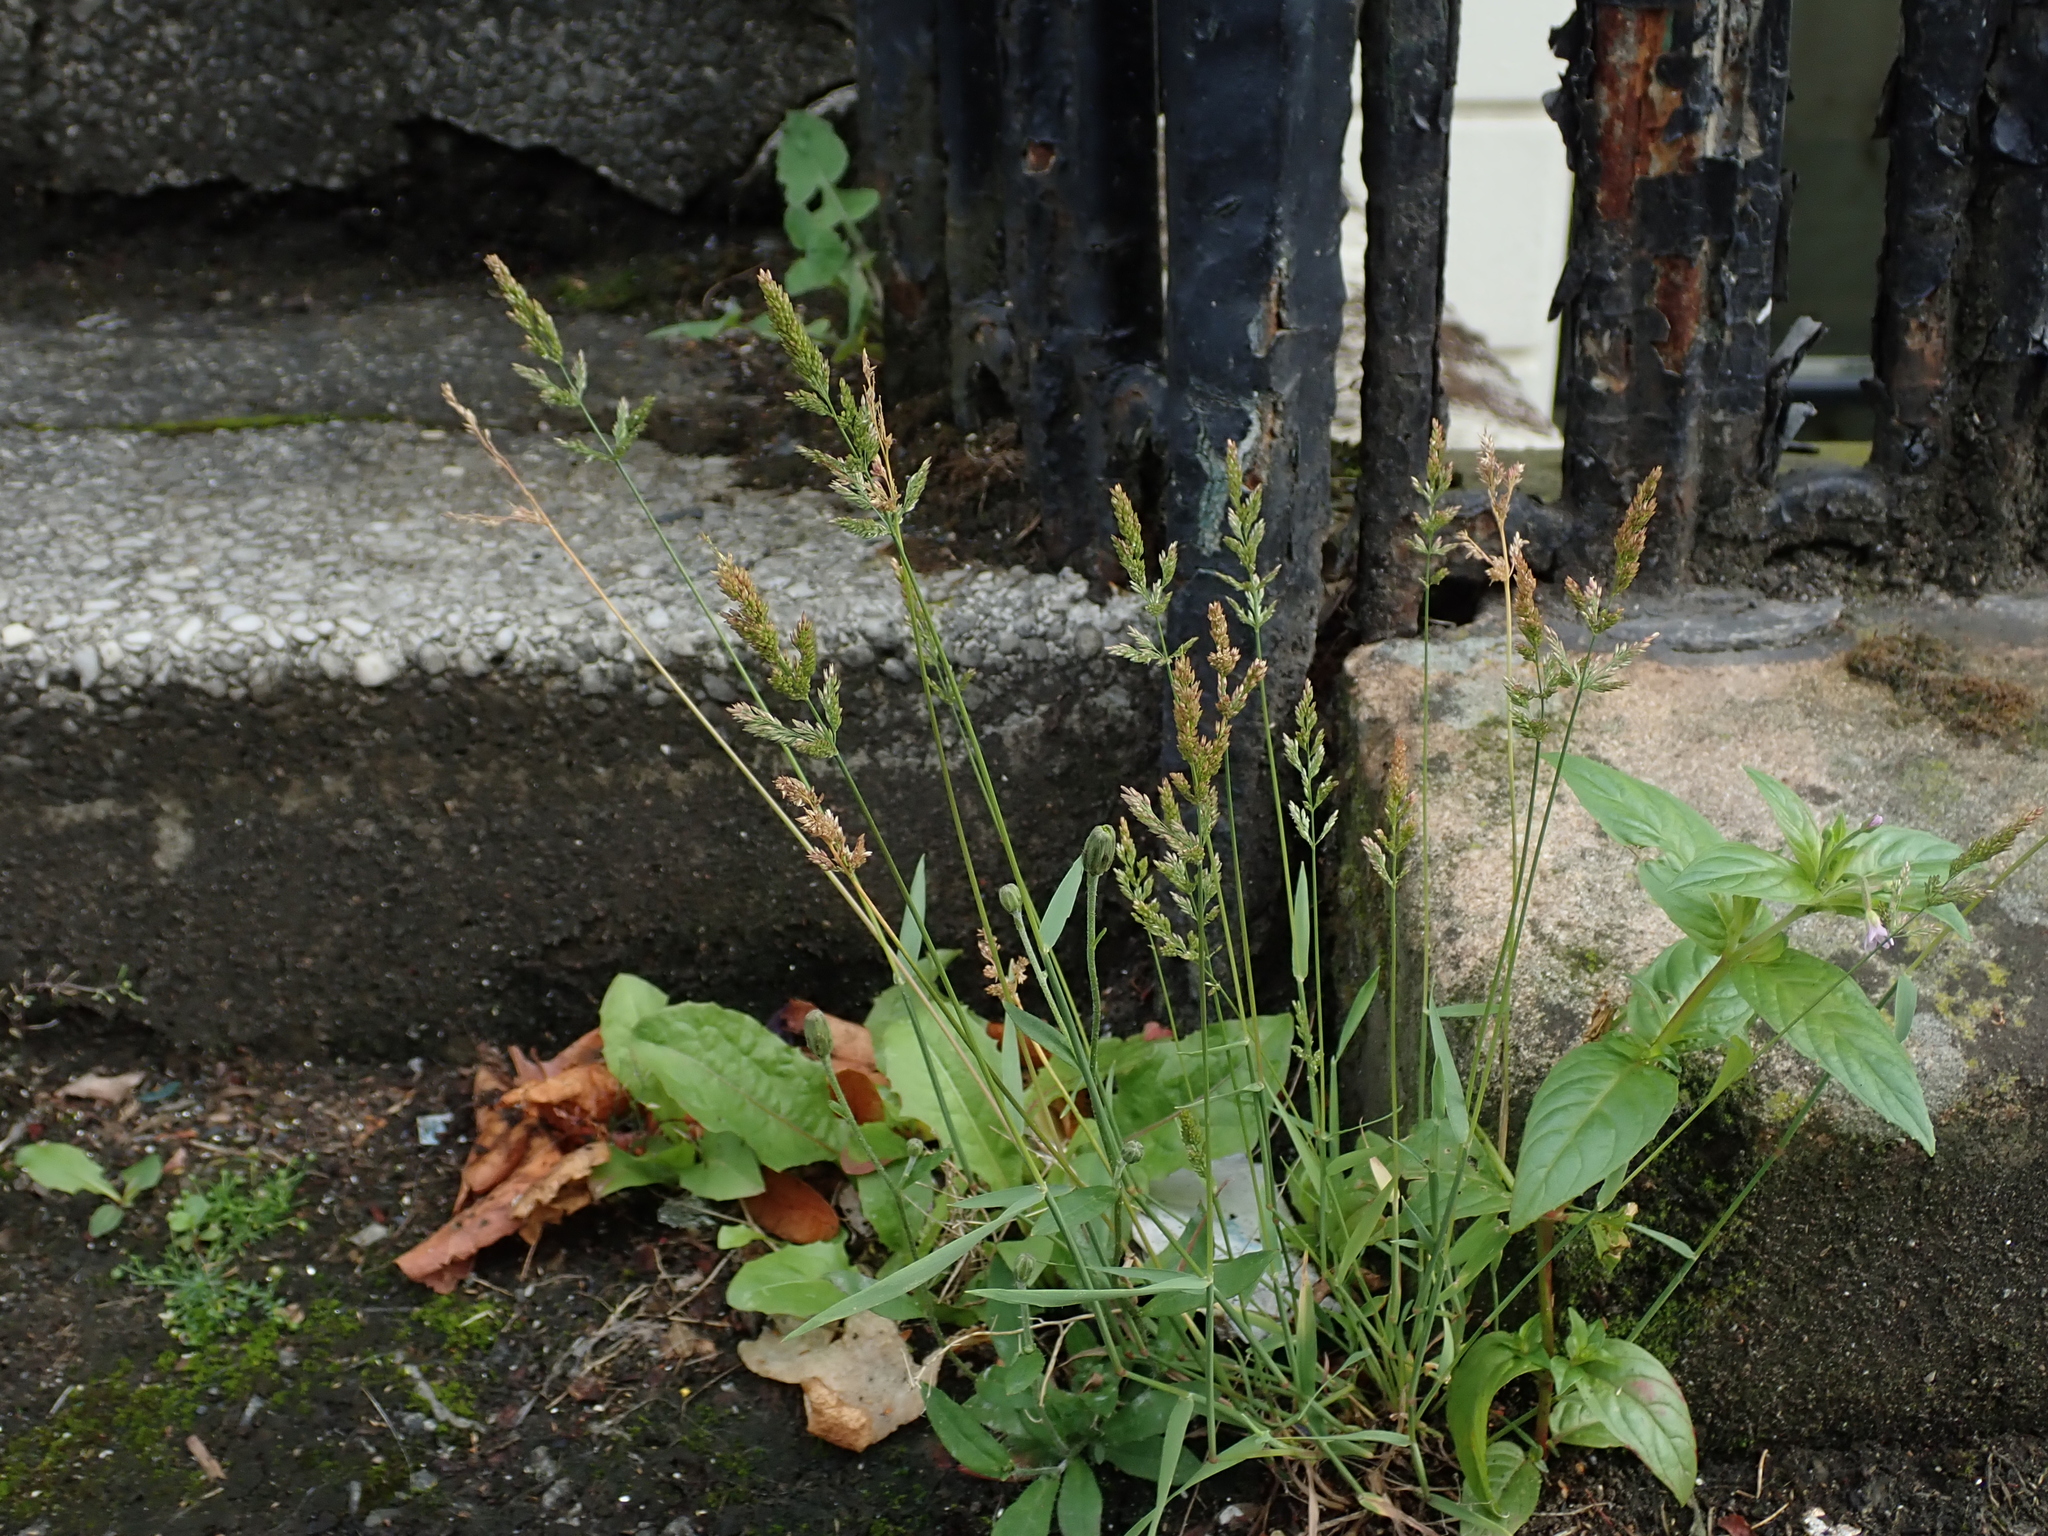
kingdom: Plantae
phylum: Tracheophyta
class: Liliopsida
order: Poales
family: Poaceae
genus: Polypogon
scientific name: Polypogon viridis
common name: Water bent
